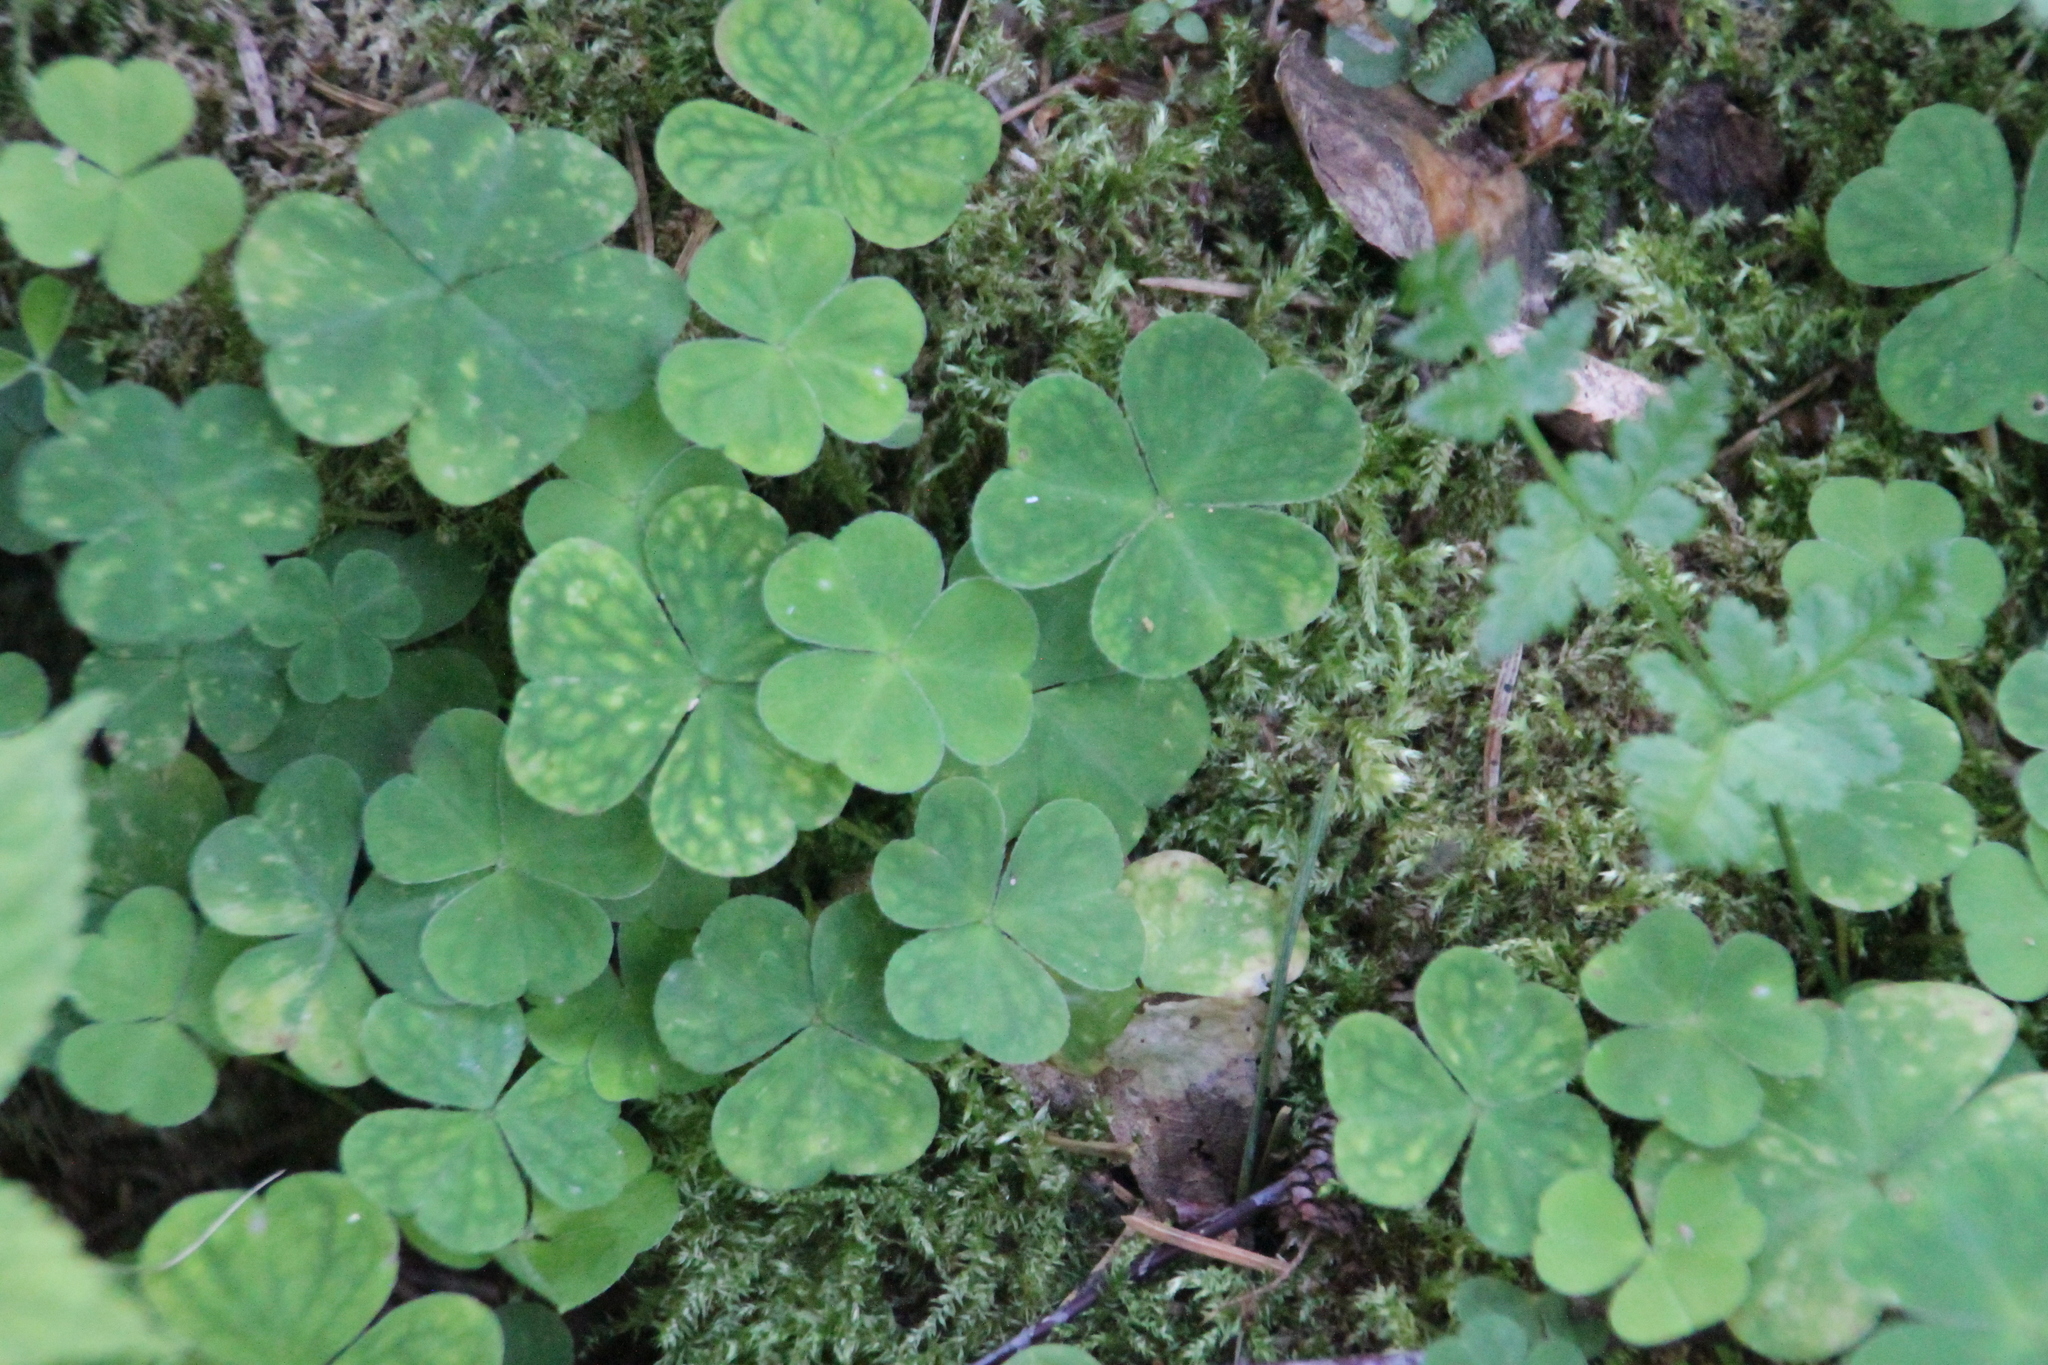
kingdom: Plantae
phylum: Tracheophyta
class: Magnoliopsida
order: Oxalidales
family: Oxalidaceae
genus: Oxalis
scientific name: Oxalis acetosella
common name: Wood-sorrel
